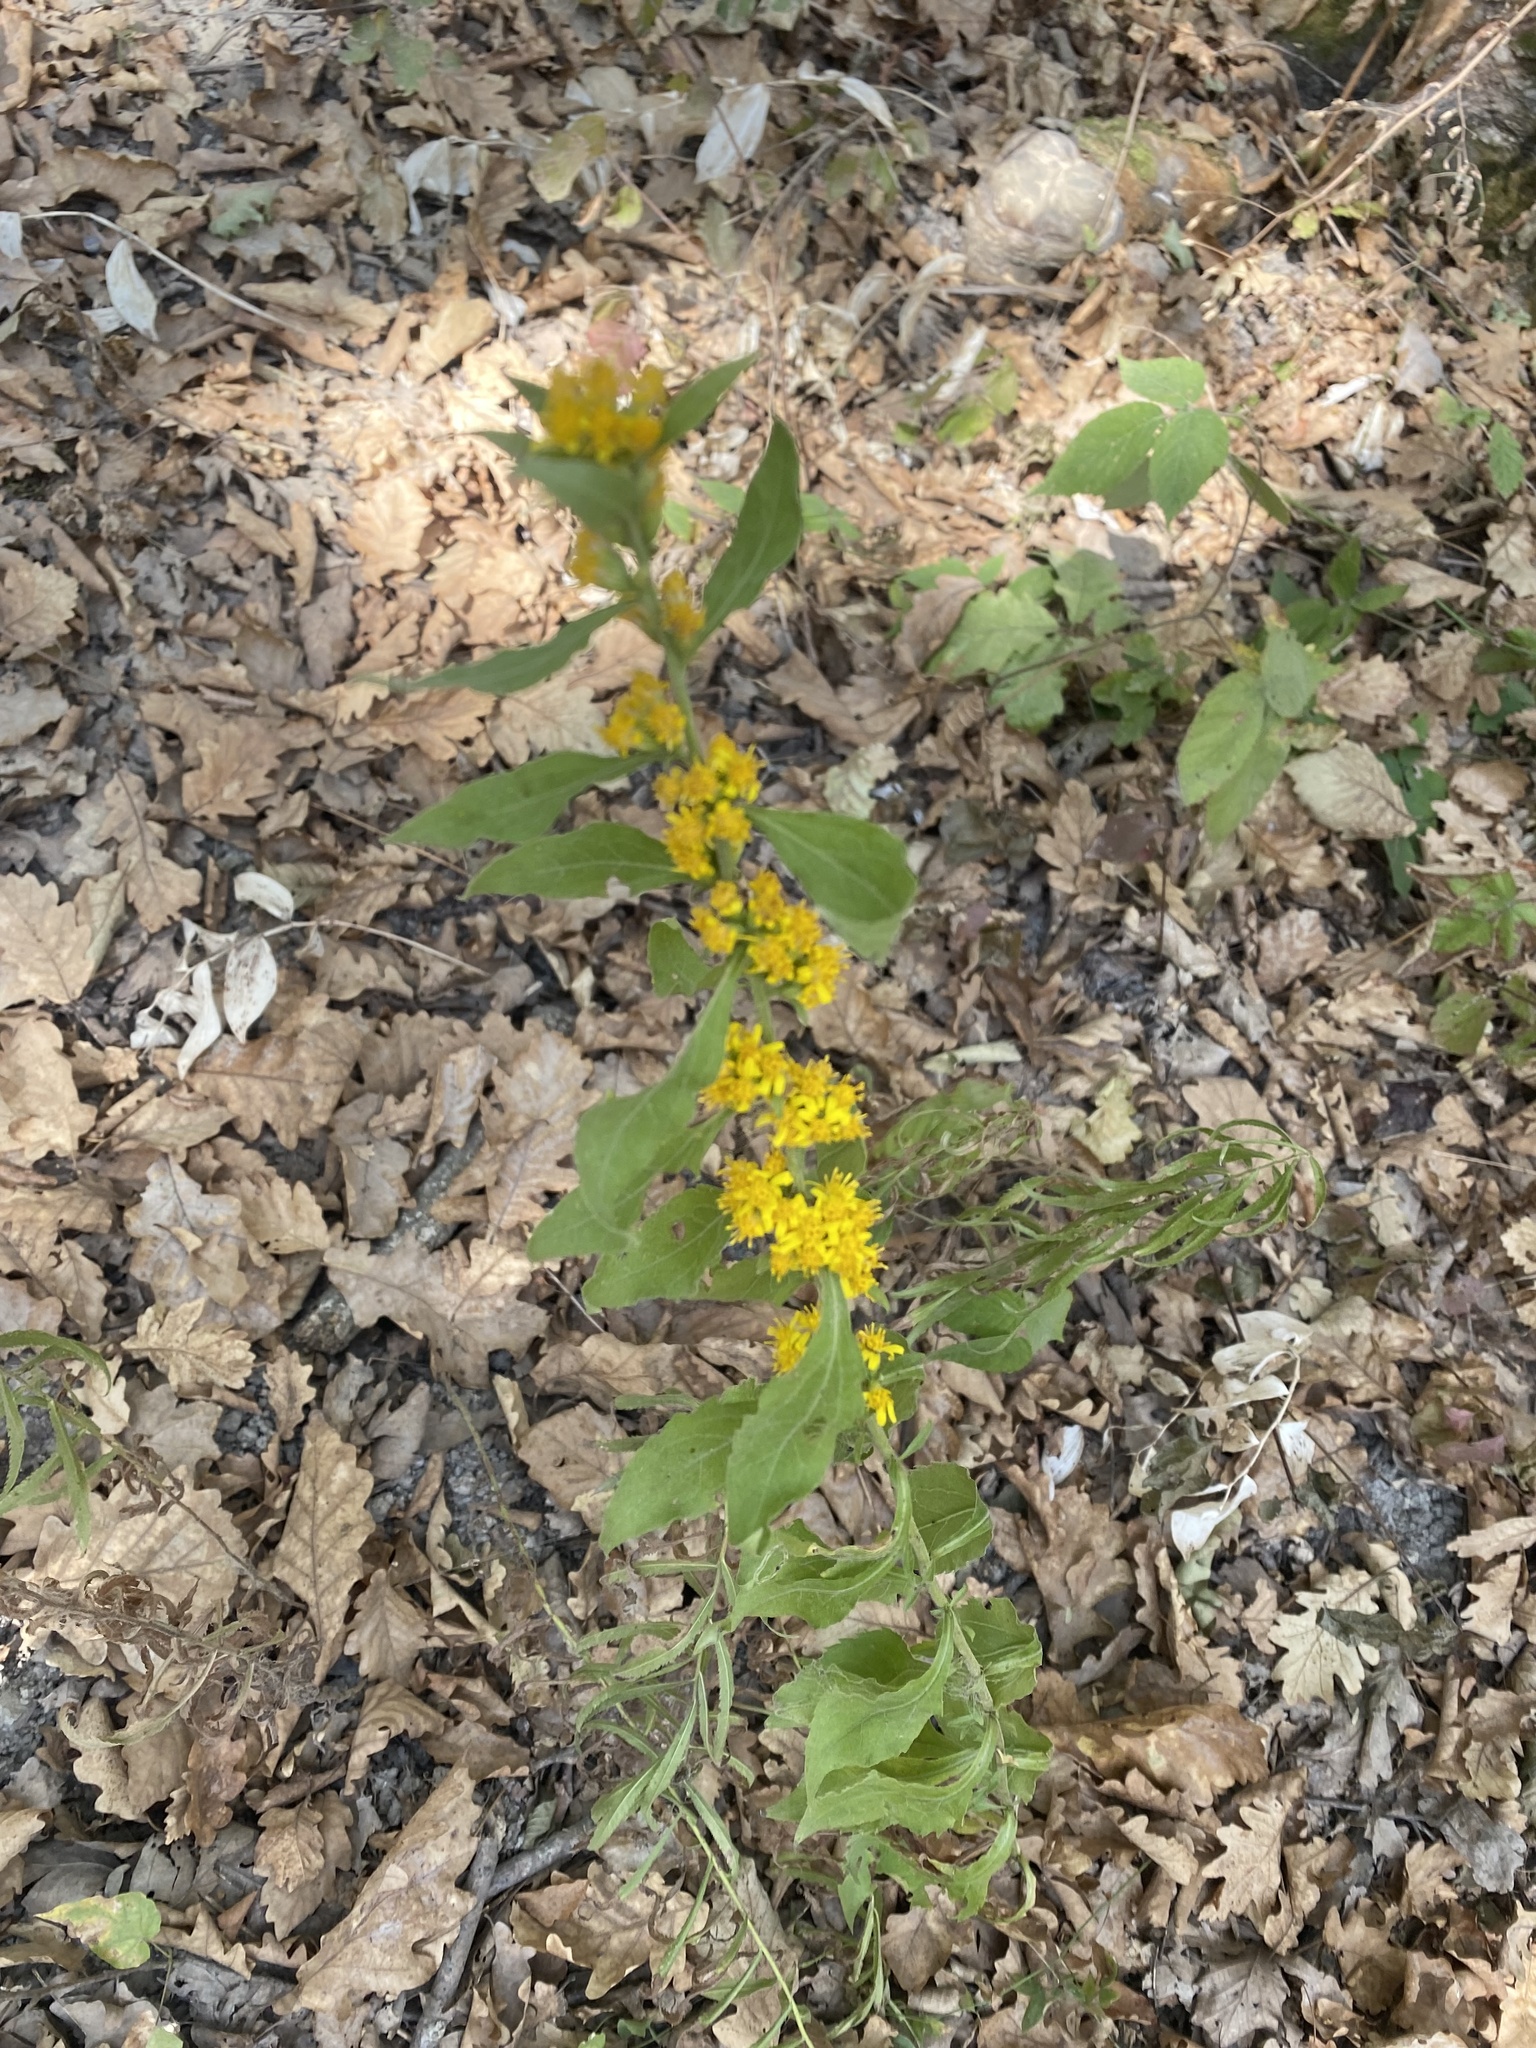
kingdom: Plantae
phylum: Tracheophyta
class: Magnoliopsida
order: Asterales
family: Asteraceae
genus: Solidago
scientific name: Solidago virgaurea
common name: Goldenrod
